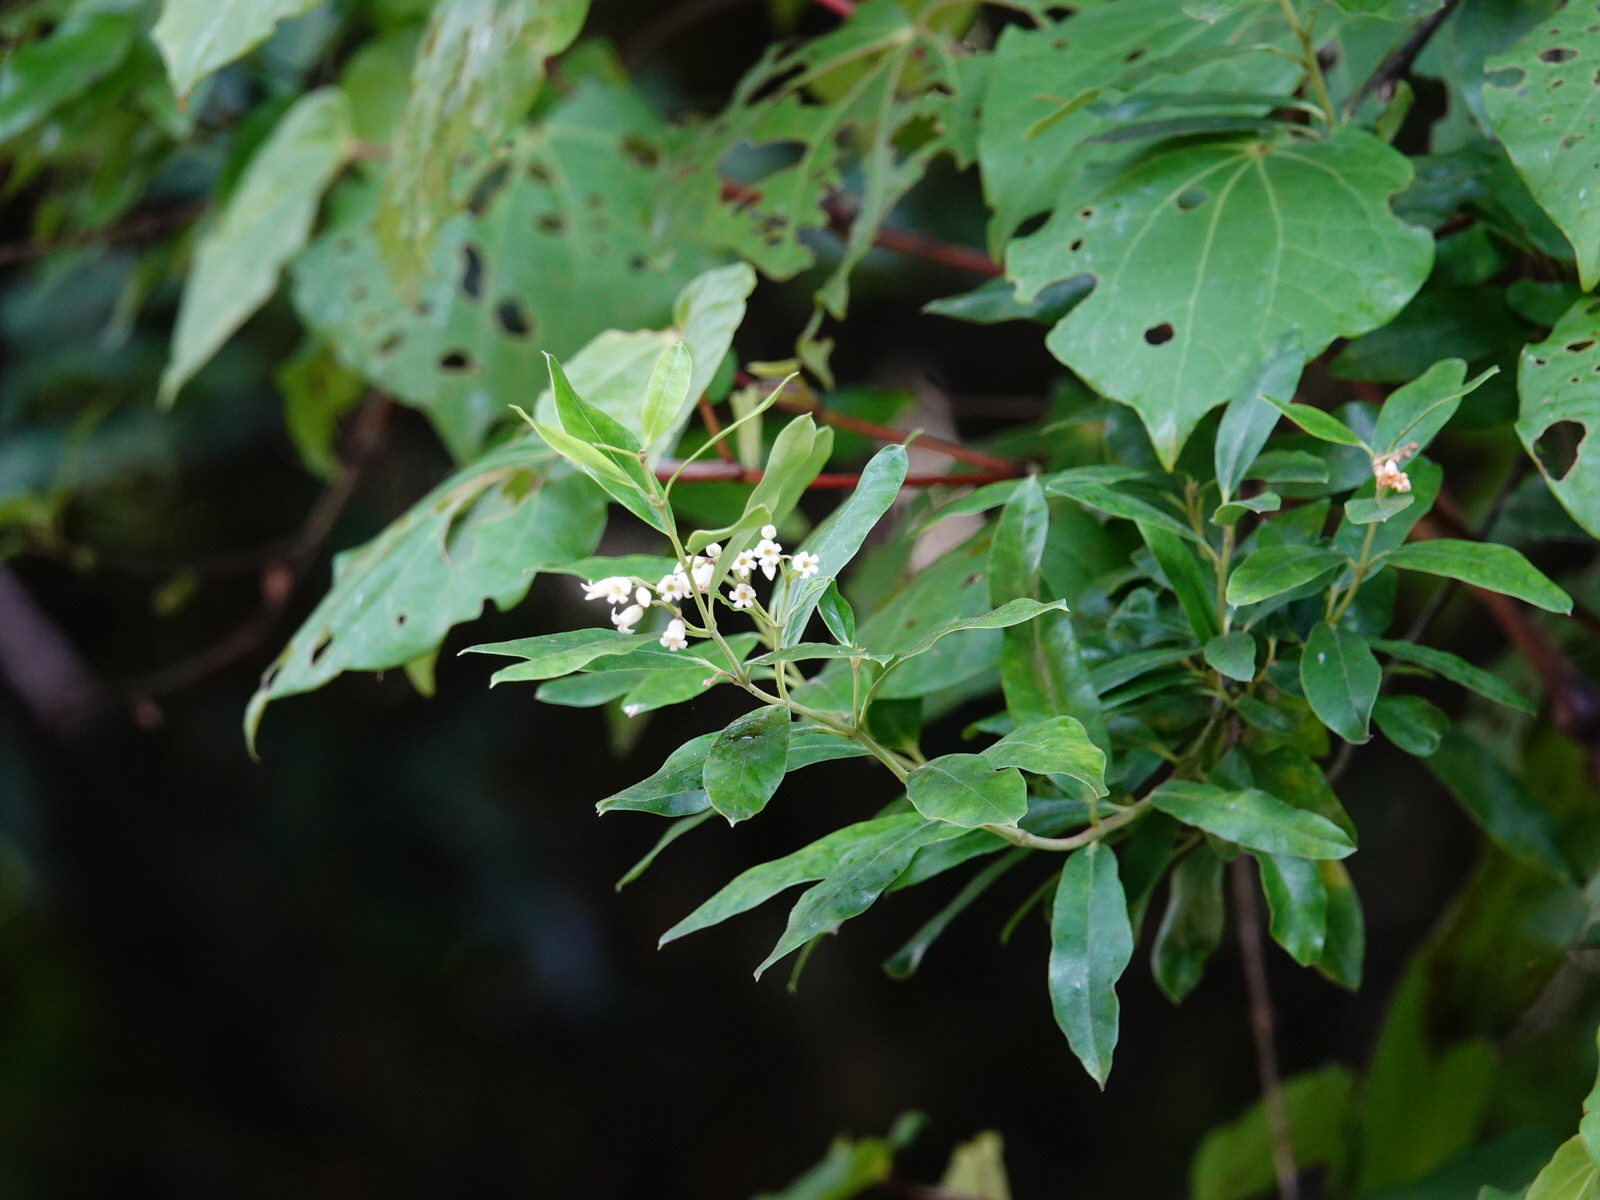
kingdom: Plantae
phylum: Tracheophyta
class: Magnoliopsida
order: Gentianales
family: Apocynaceae
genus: Parsonsia
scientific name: Parsonsia heterophylla
